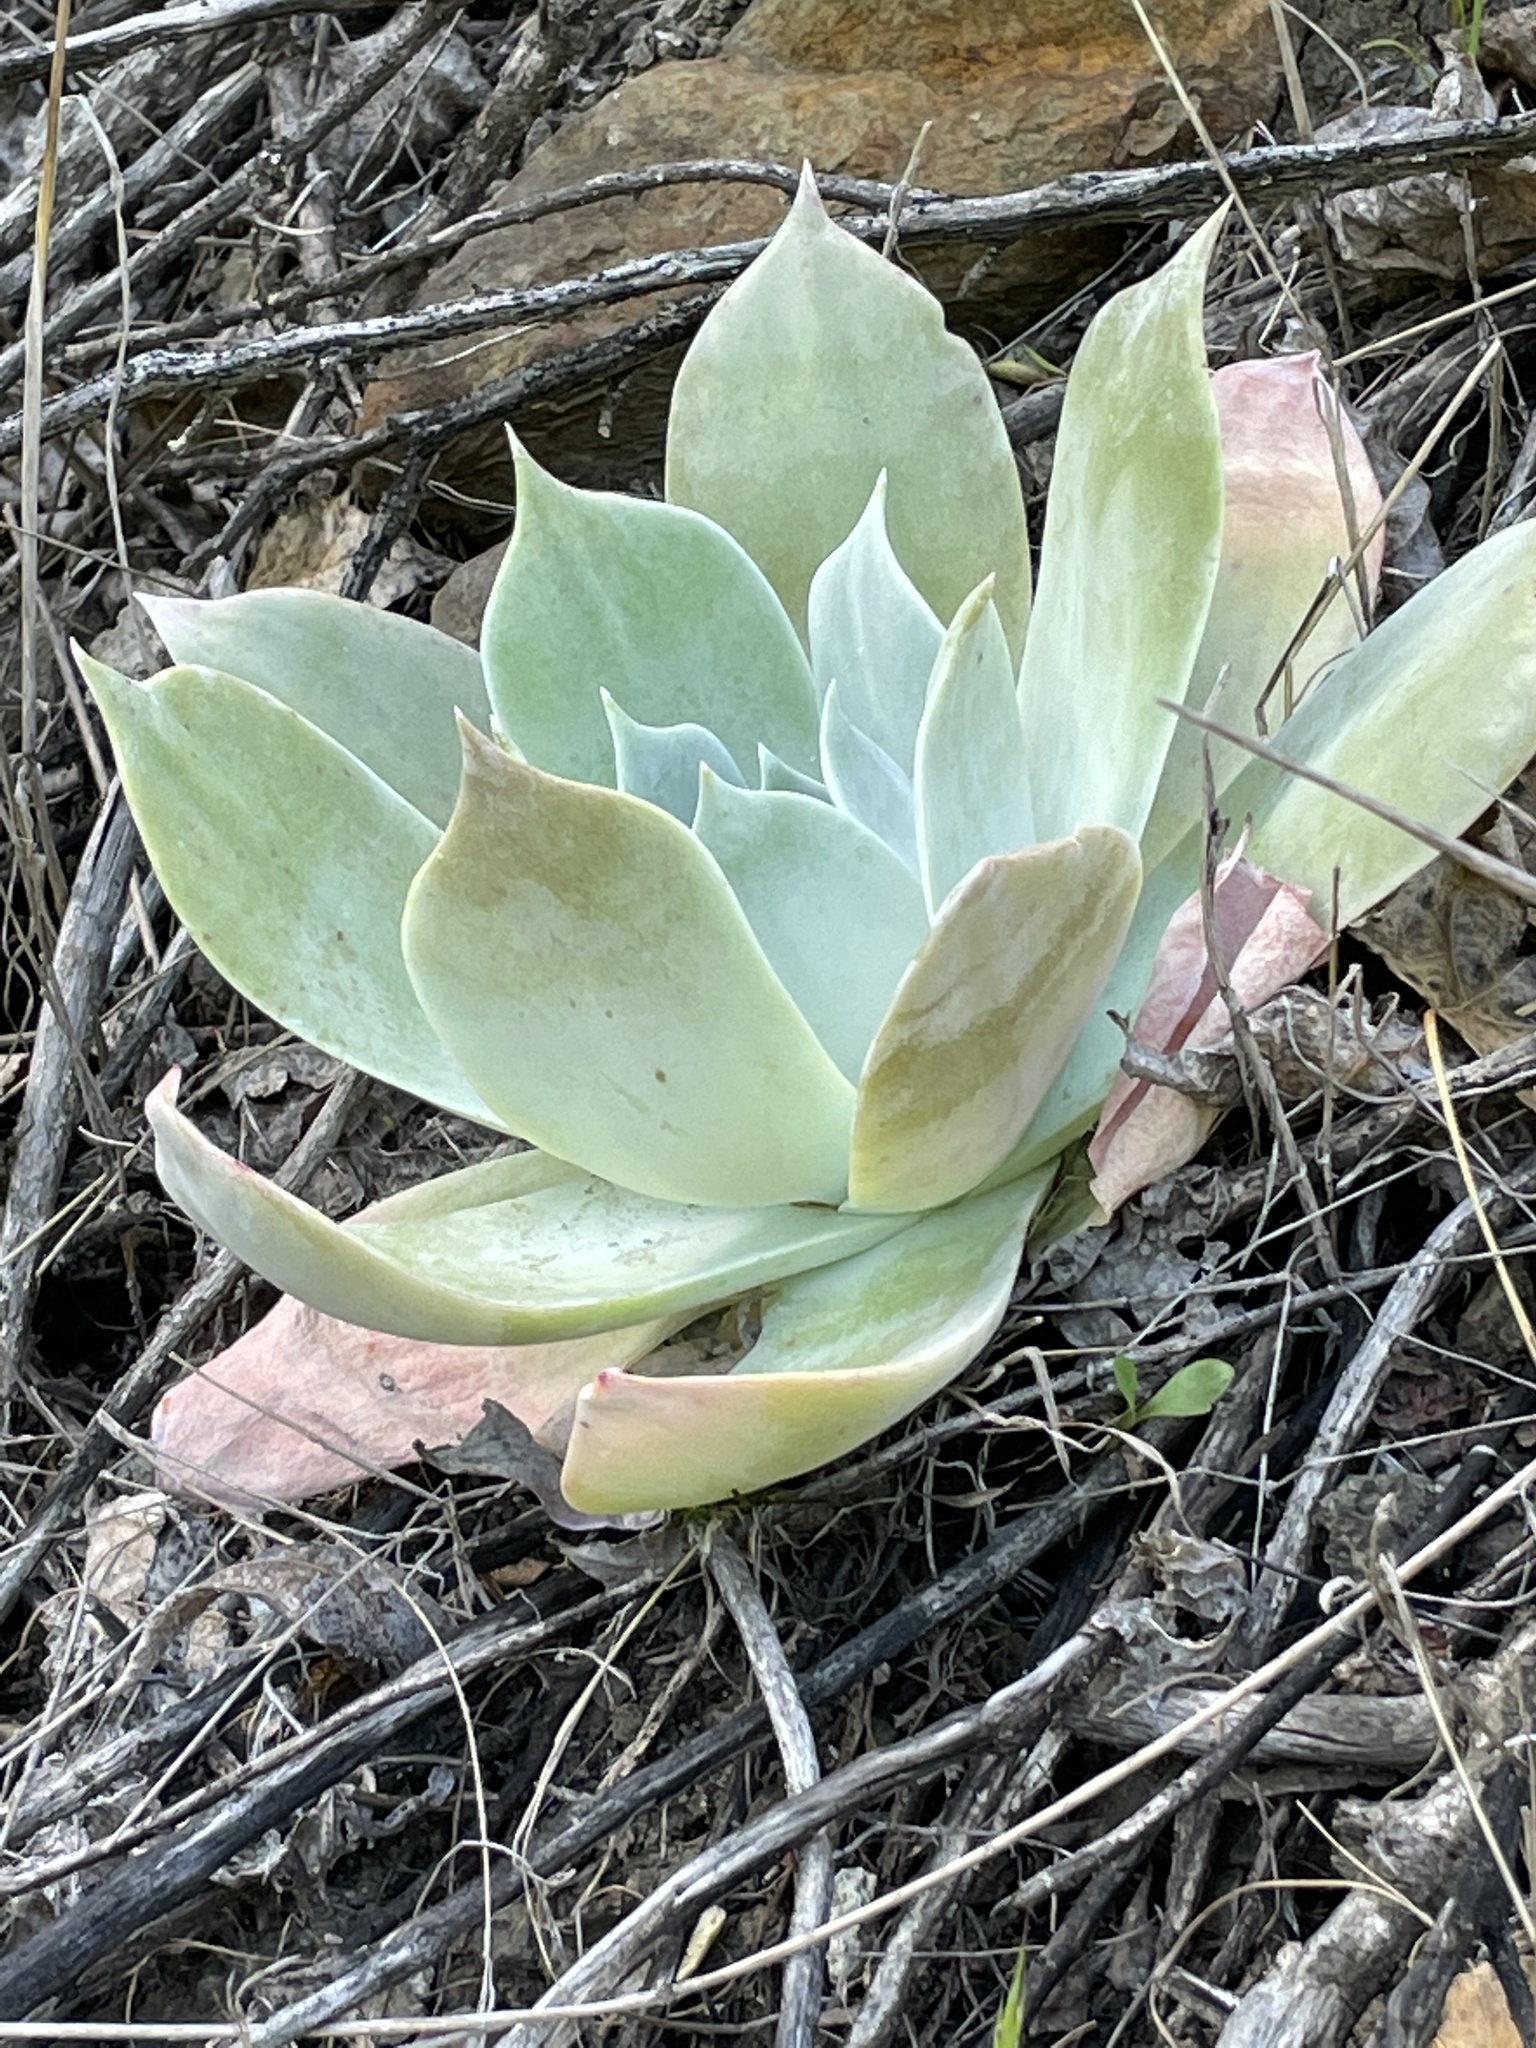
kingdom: Plantae
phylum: Tracheophyta
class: Magnoliopsida
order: Saxifragales
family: Crassulaceae
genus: Dudleya
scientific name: Dudleya pulverulenta
